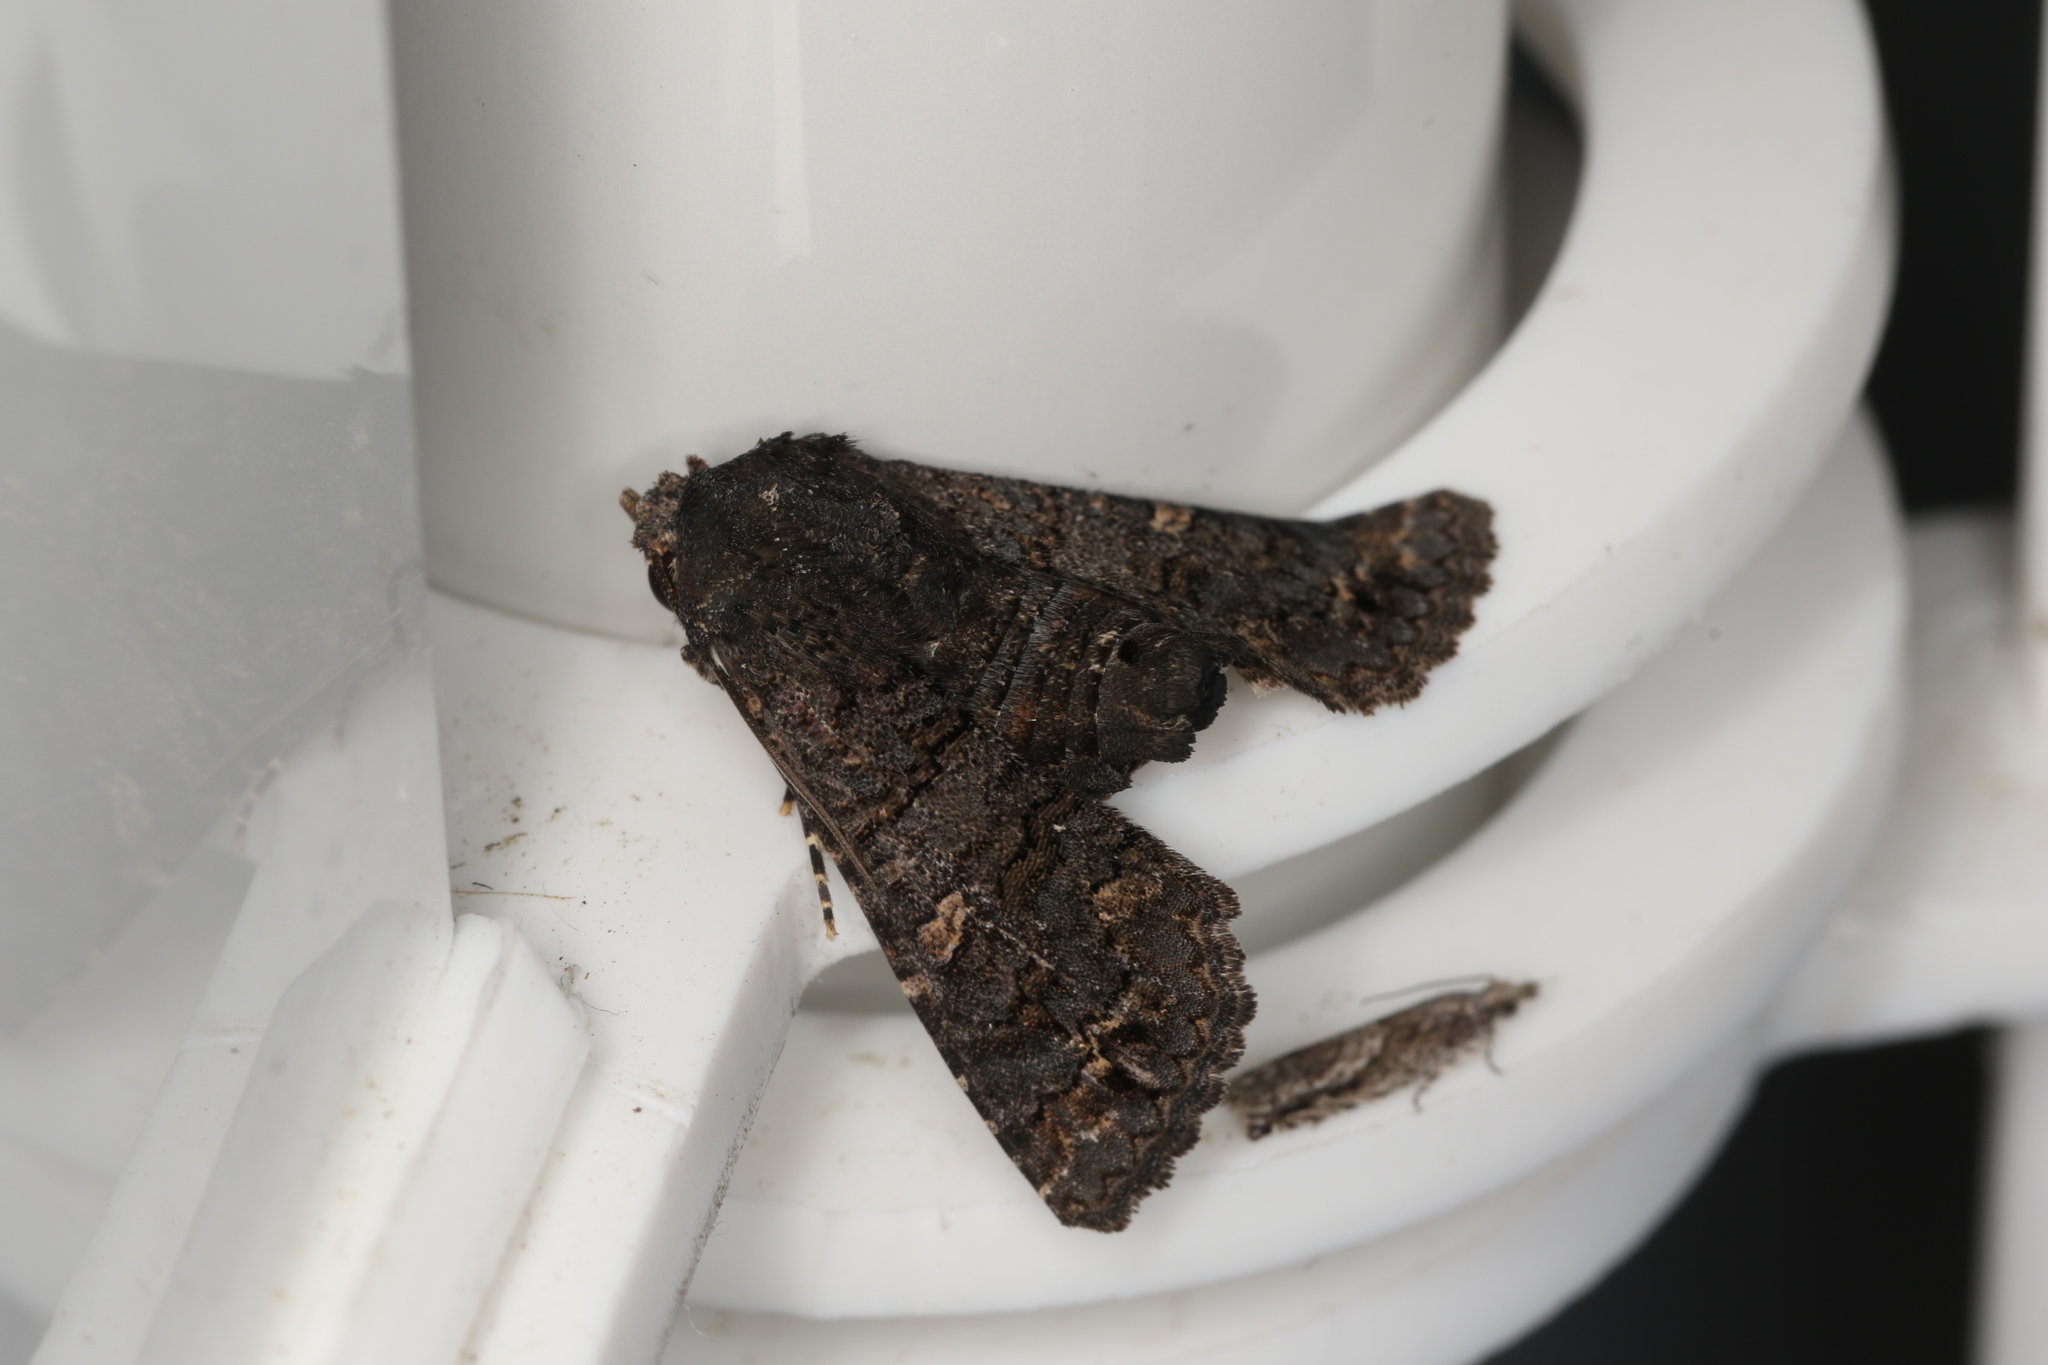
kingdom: Animalia
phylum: Arthropoda
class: Insecta
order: Lepidoptera
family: Euteliidae
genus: Pataeta
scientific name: Pataeta carbo
